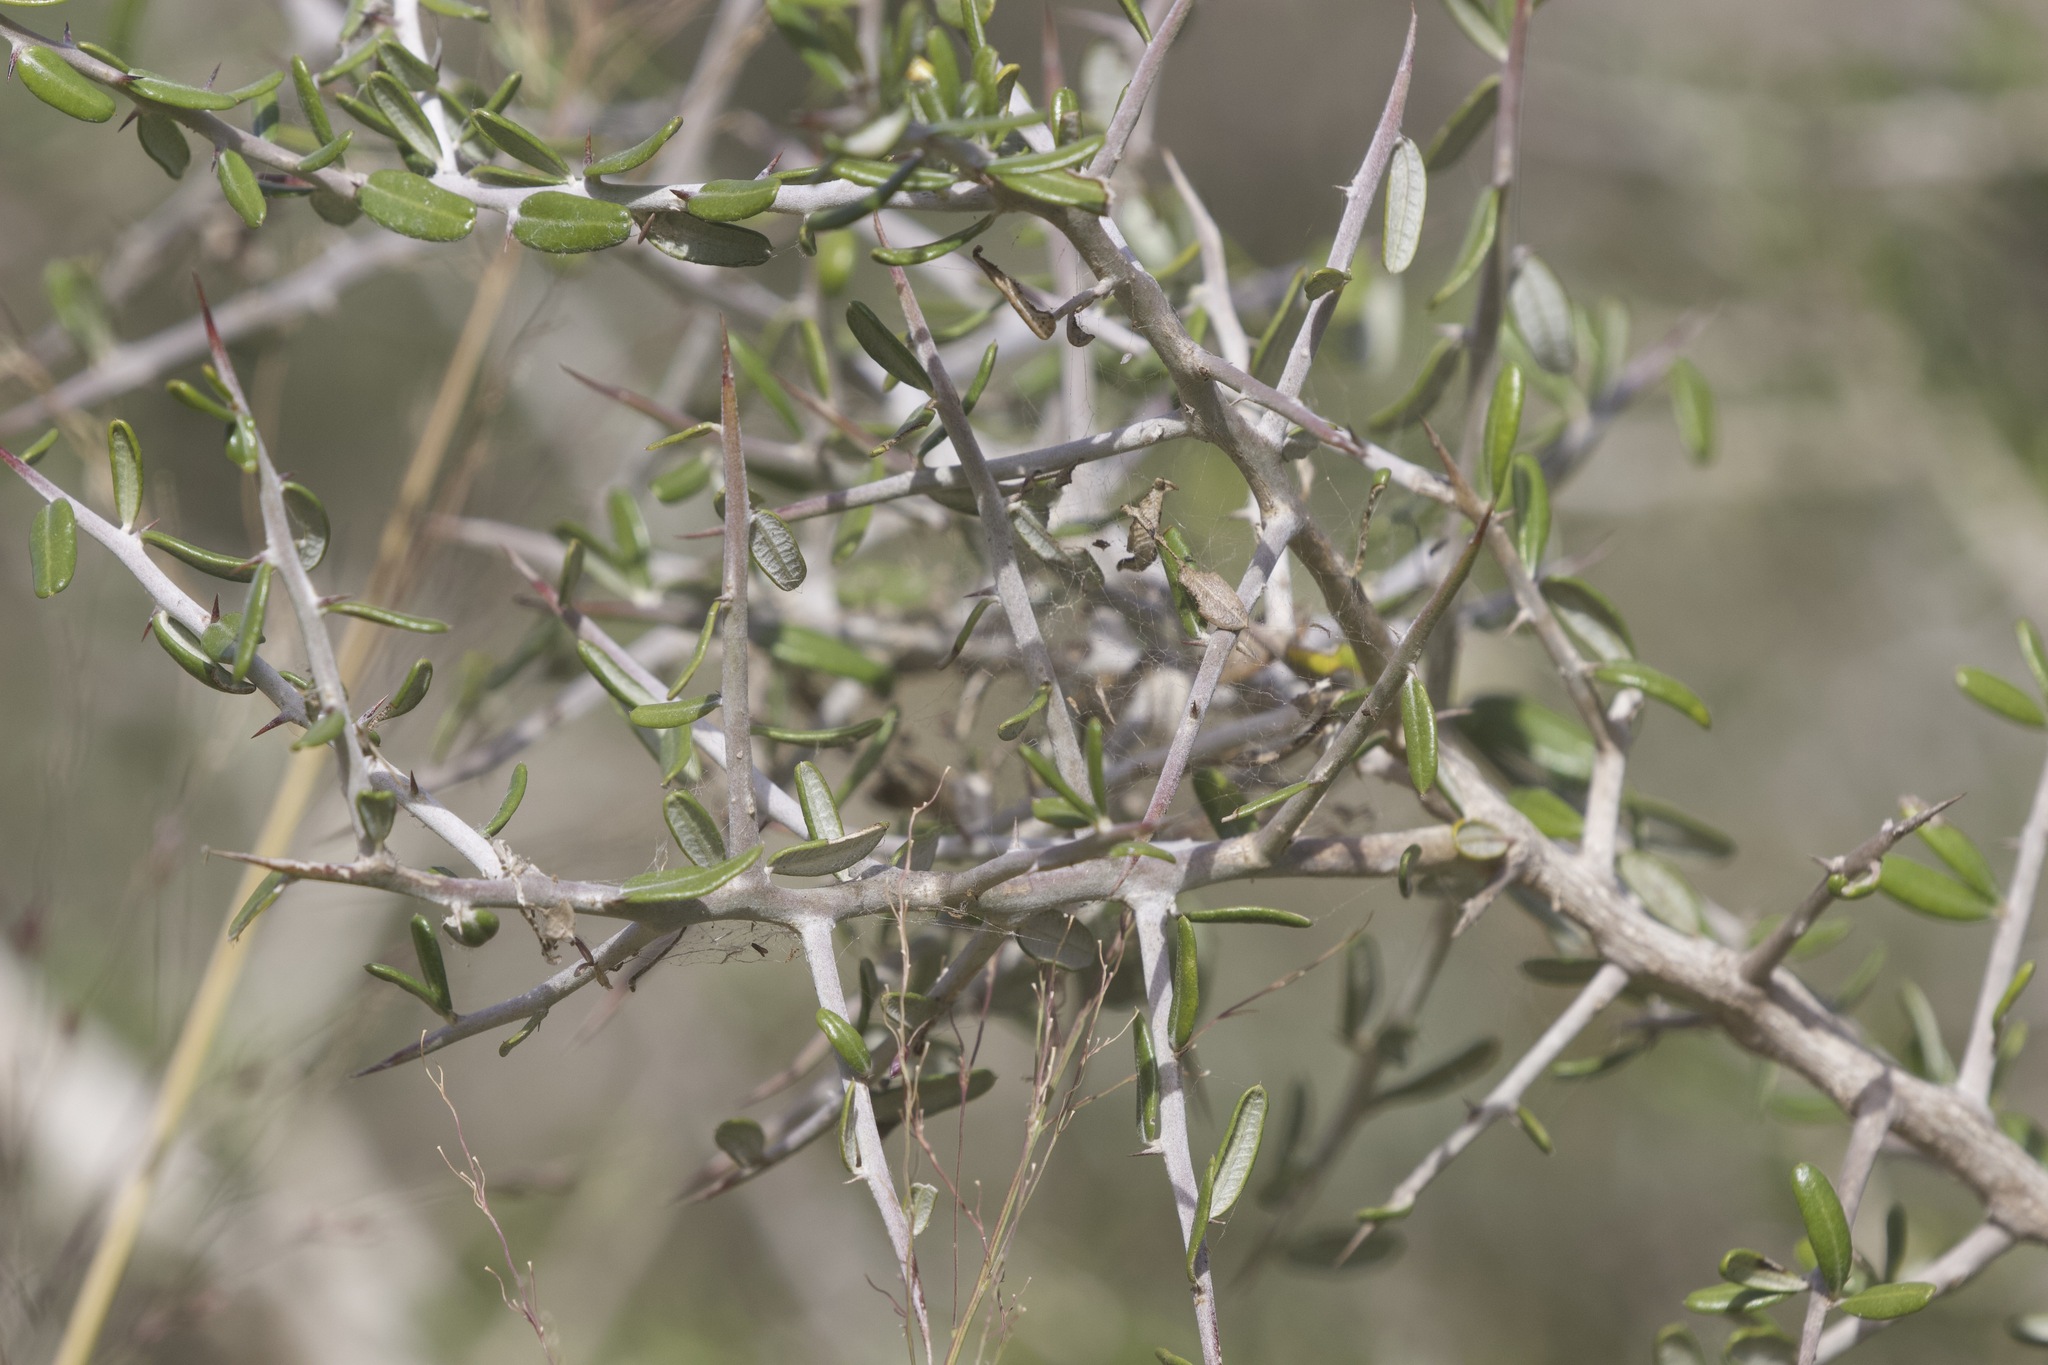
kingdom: Plantae
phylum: Tracheophyta
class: Magnoliopsida
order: Sapindales
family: Simaroubaceae
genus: Castela
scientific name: Castela erecta
